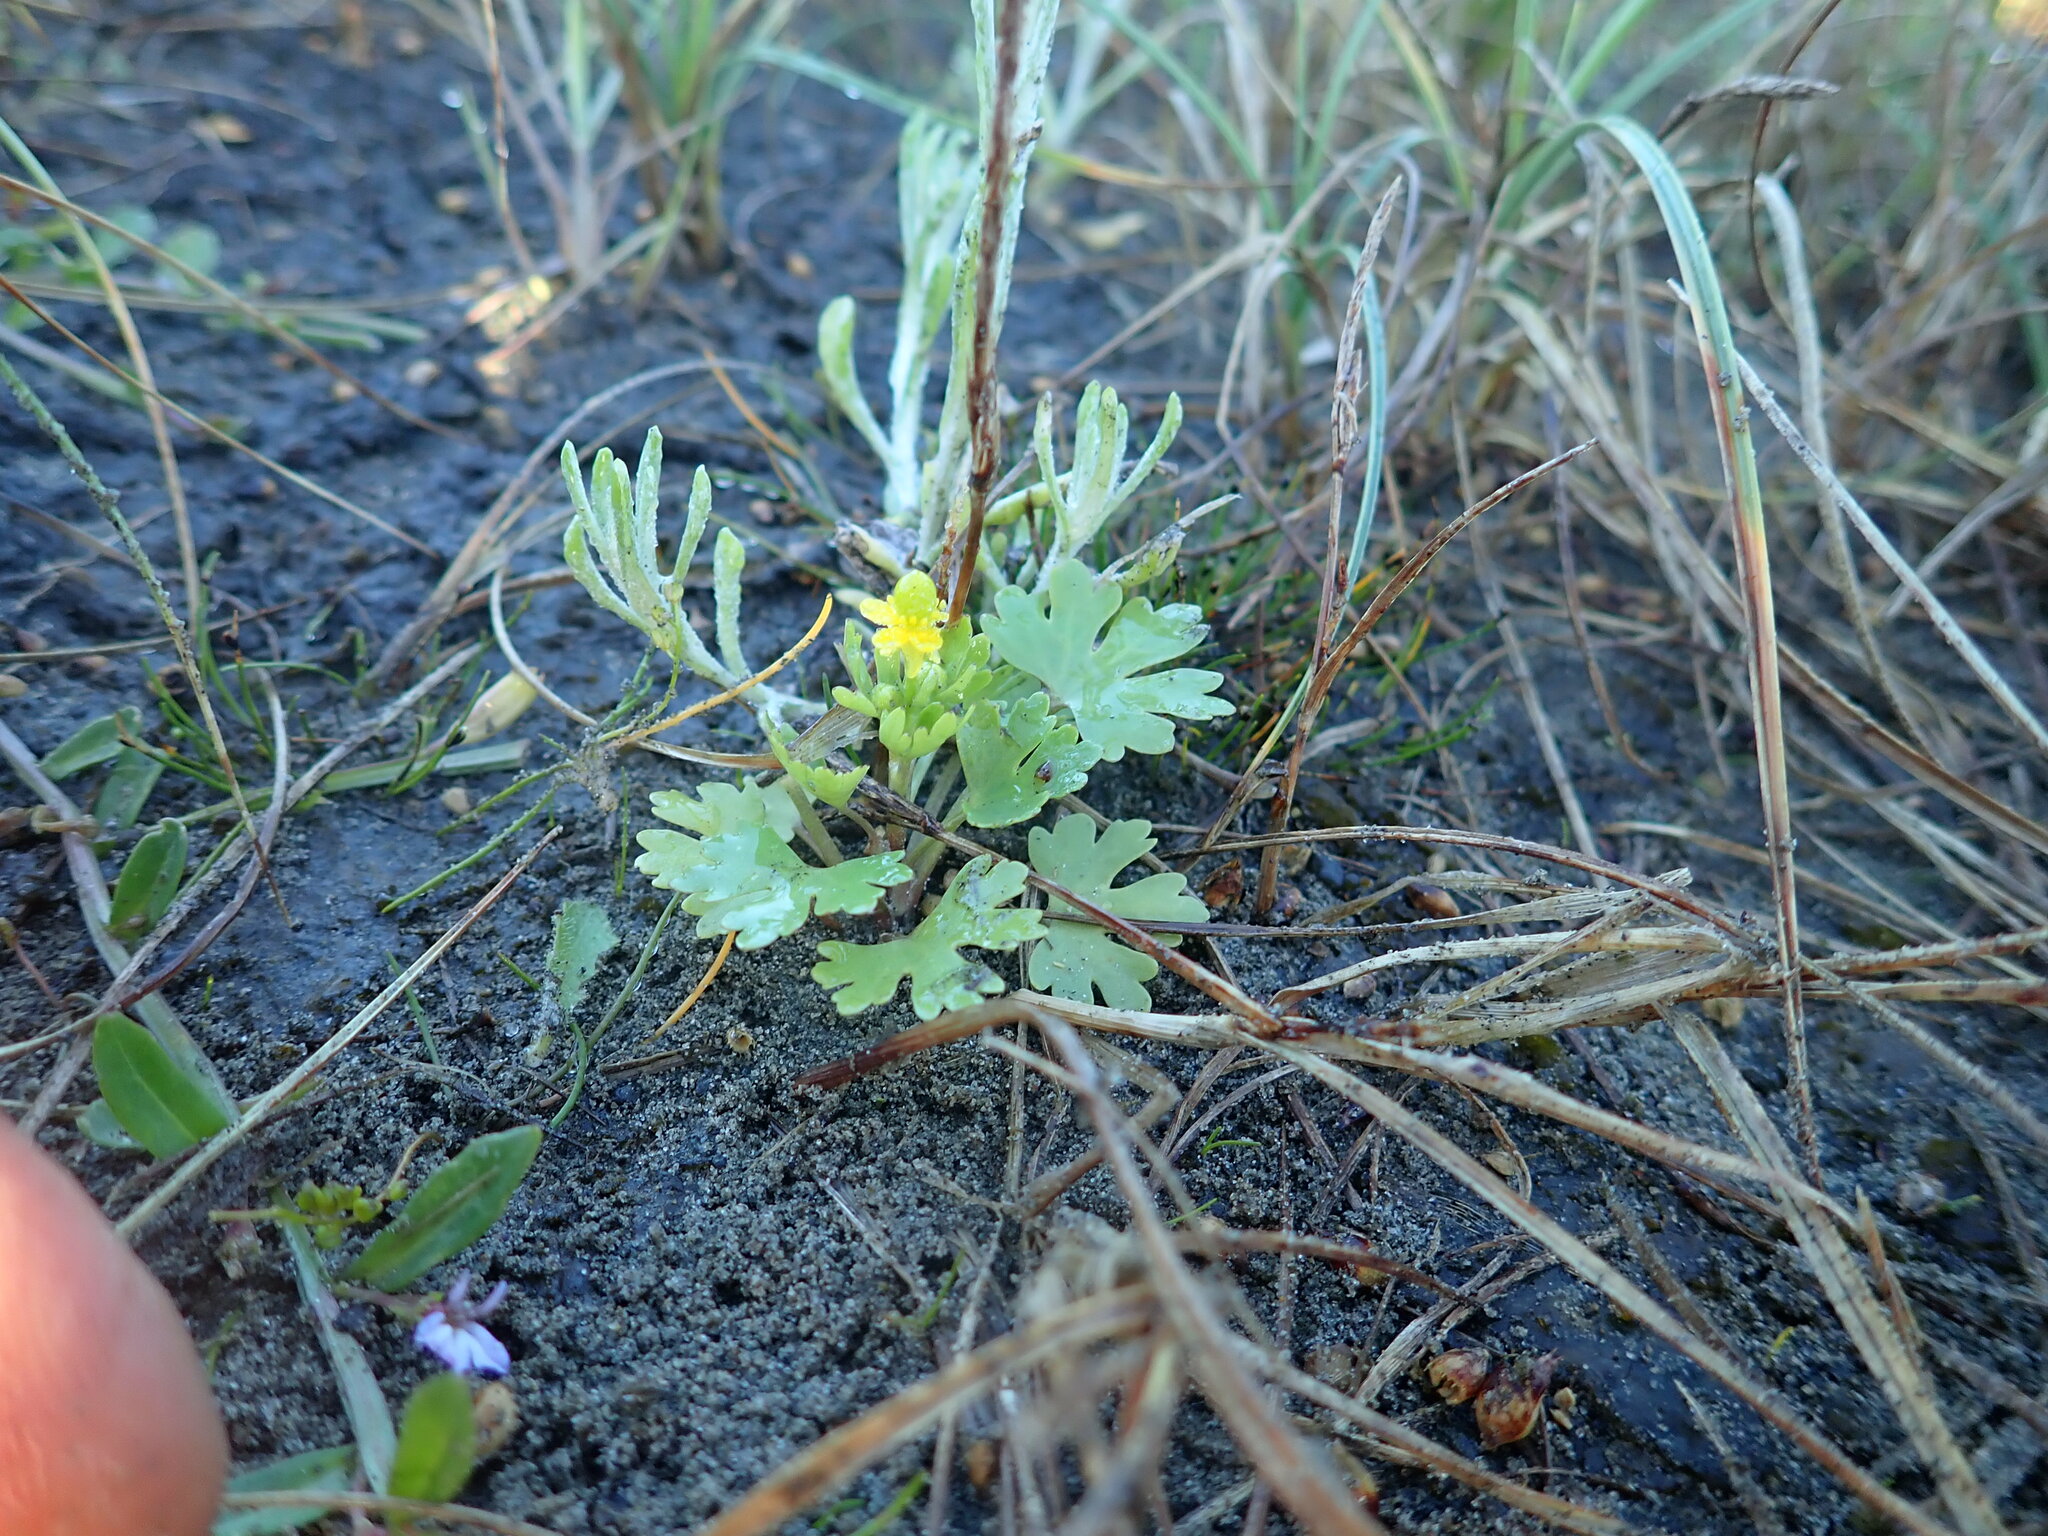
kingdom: Plantae
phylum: Tracheophyta
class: Magnoliopsida
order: Ranunculales
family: Ranunculaceae
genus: Ranunculus
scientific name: Ranunculus sceleratus
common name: Celery-leaved buttercup
